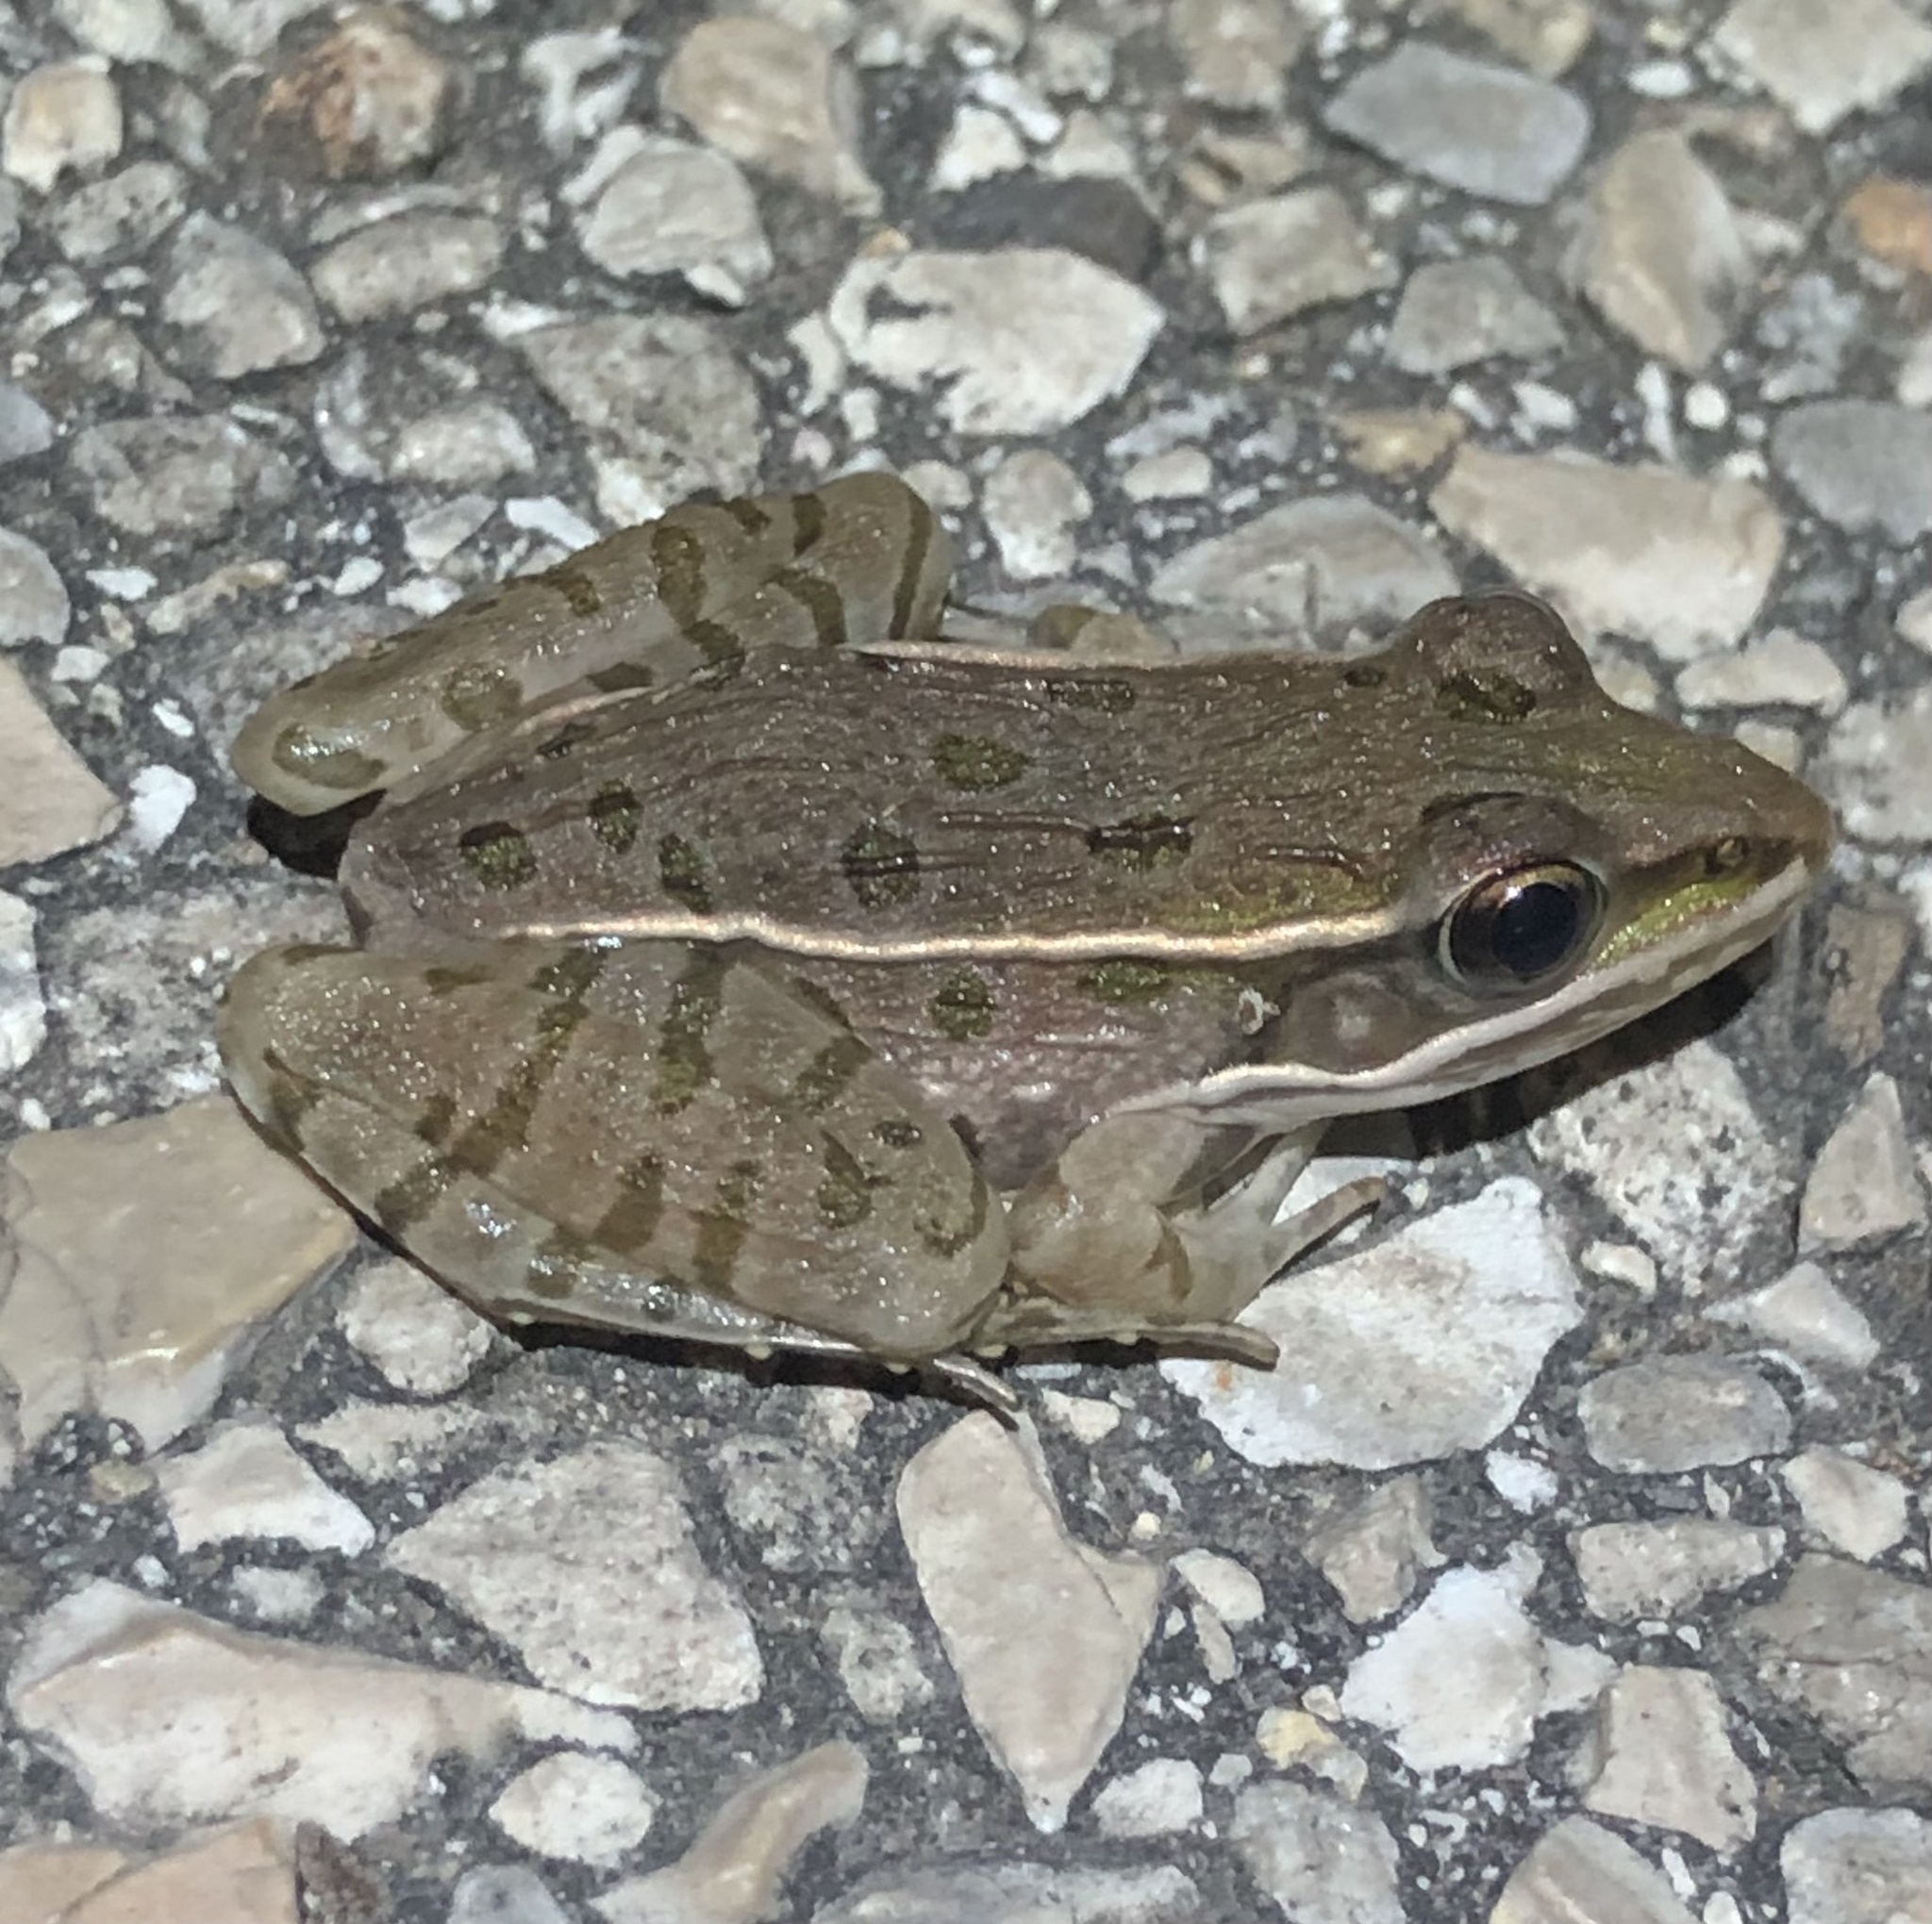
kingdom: Animalia
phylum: Chordata
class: Amphibia
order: Anura
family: Ranidae
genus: Lithobates
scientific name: Lithobates sphenocephalus
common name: Southern leopard frog
